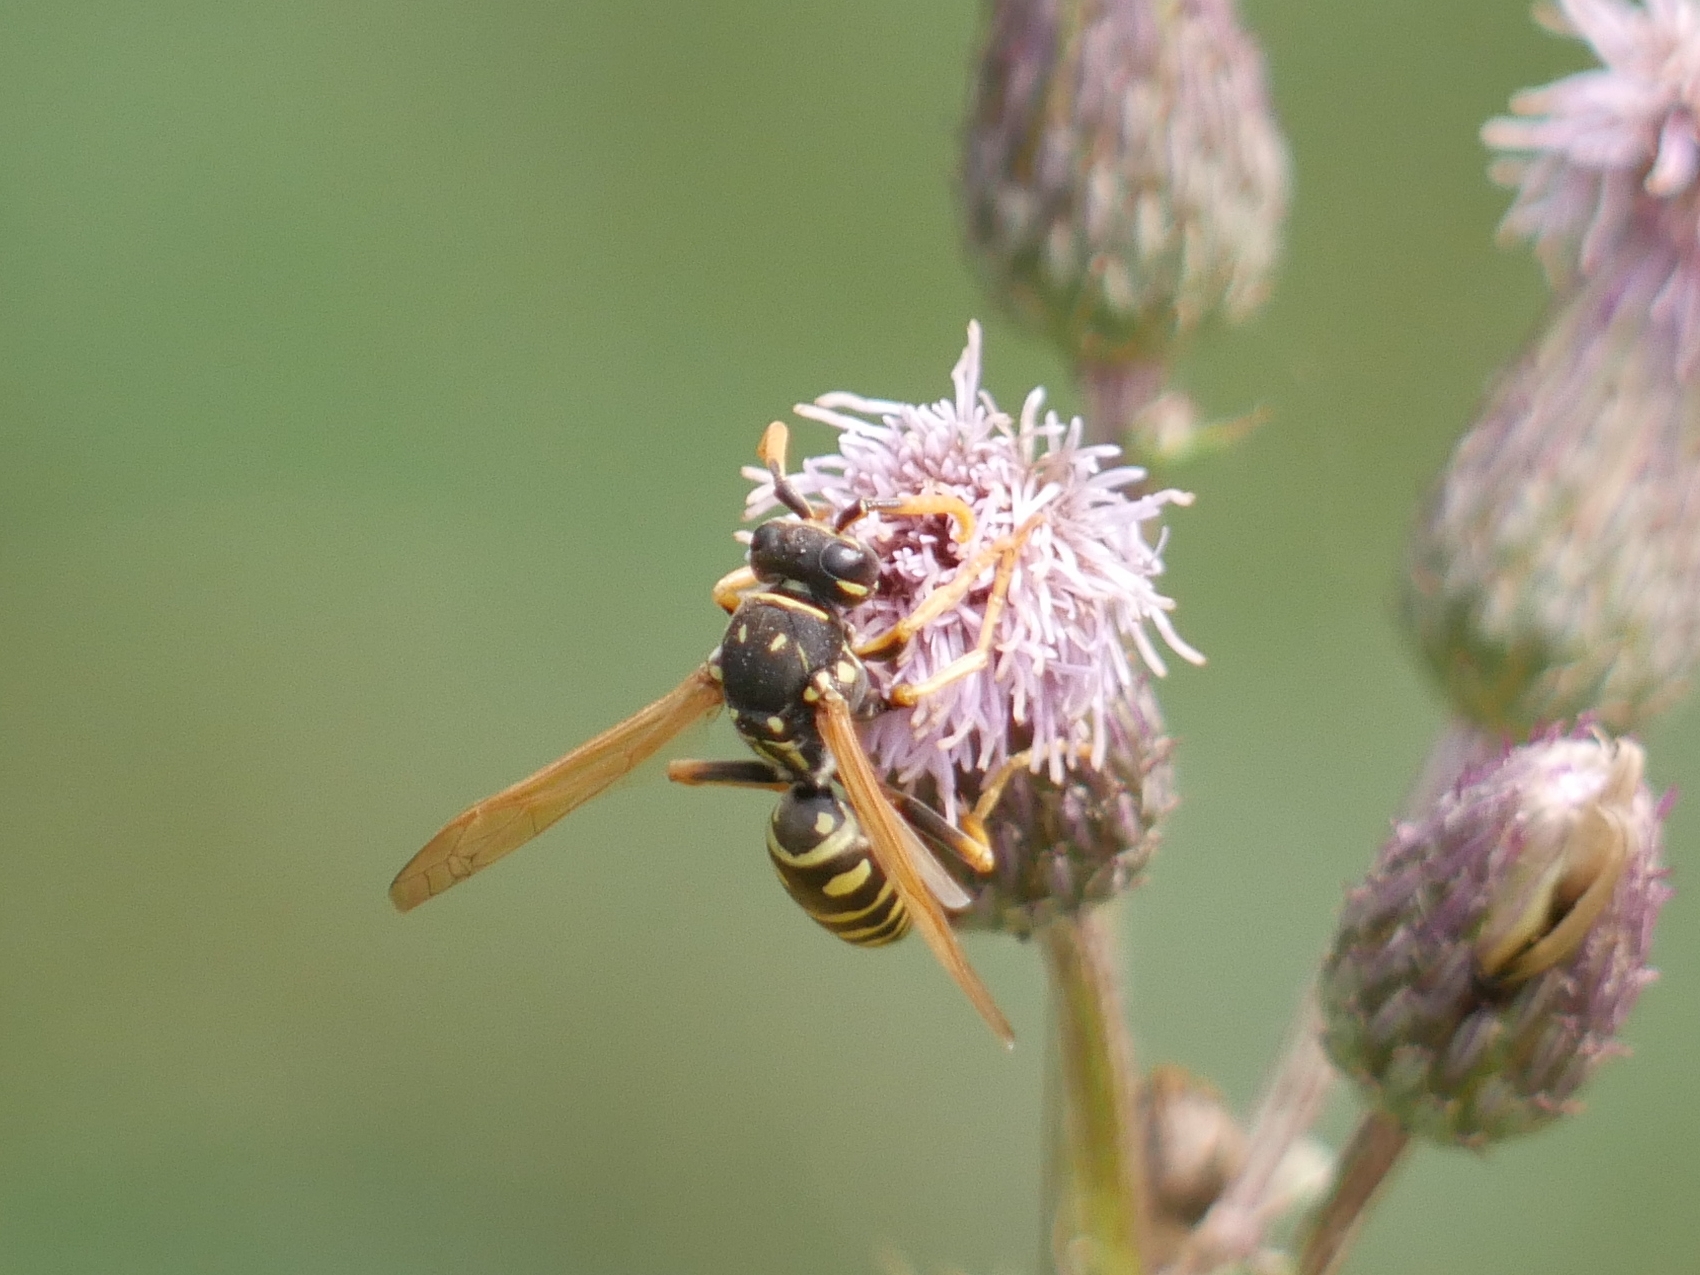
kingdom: Animalia
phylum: Arthropoda
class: Insecta
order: Hymenoptera
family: Eumenidae
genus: Polistes
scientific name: Polistes dominula
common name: Paper wasp
